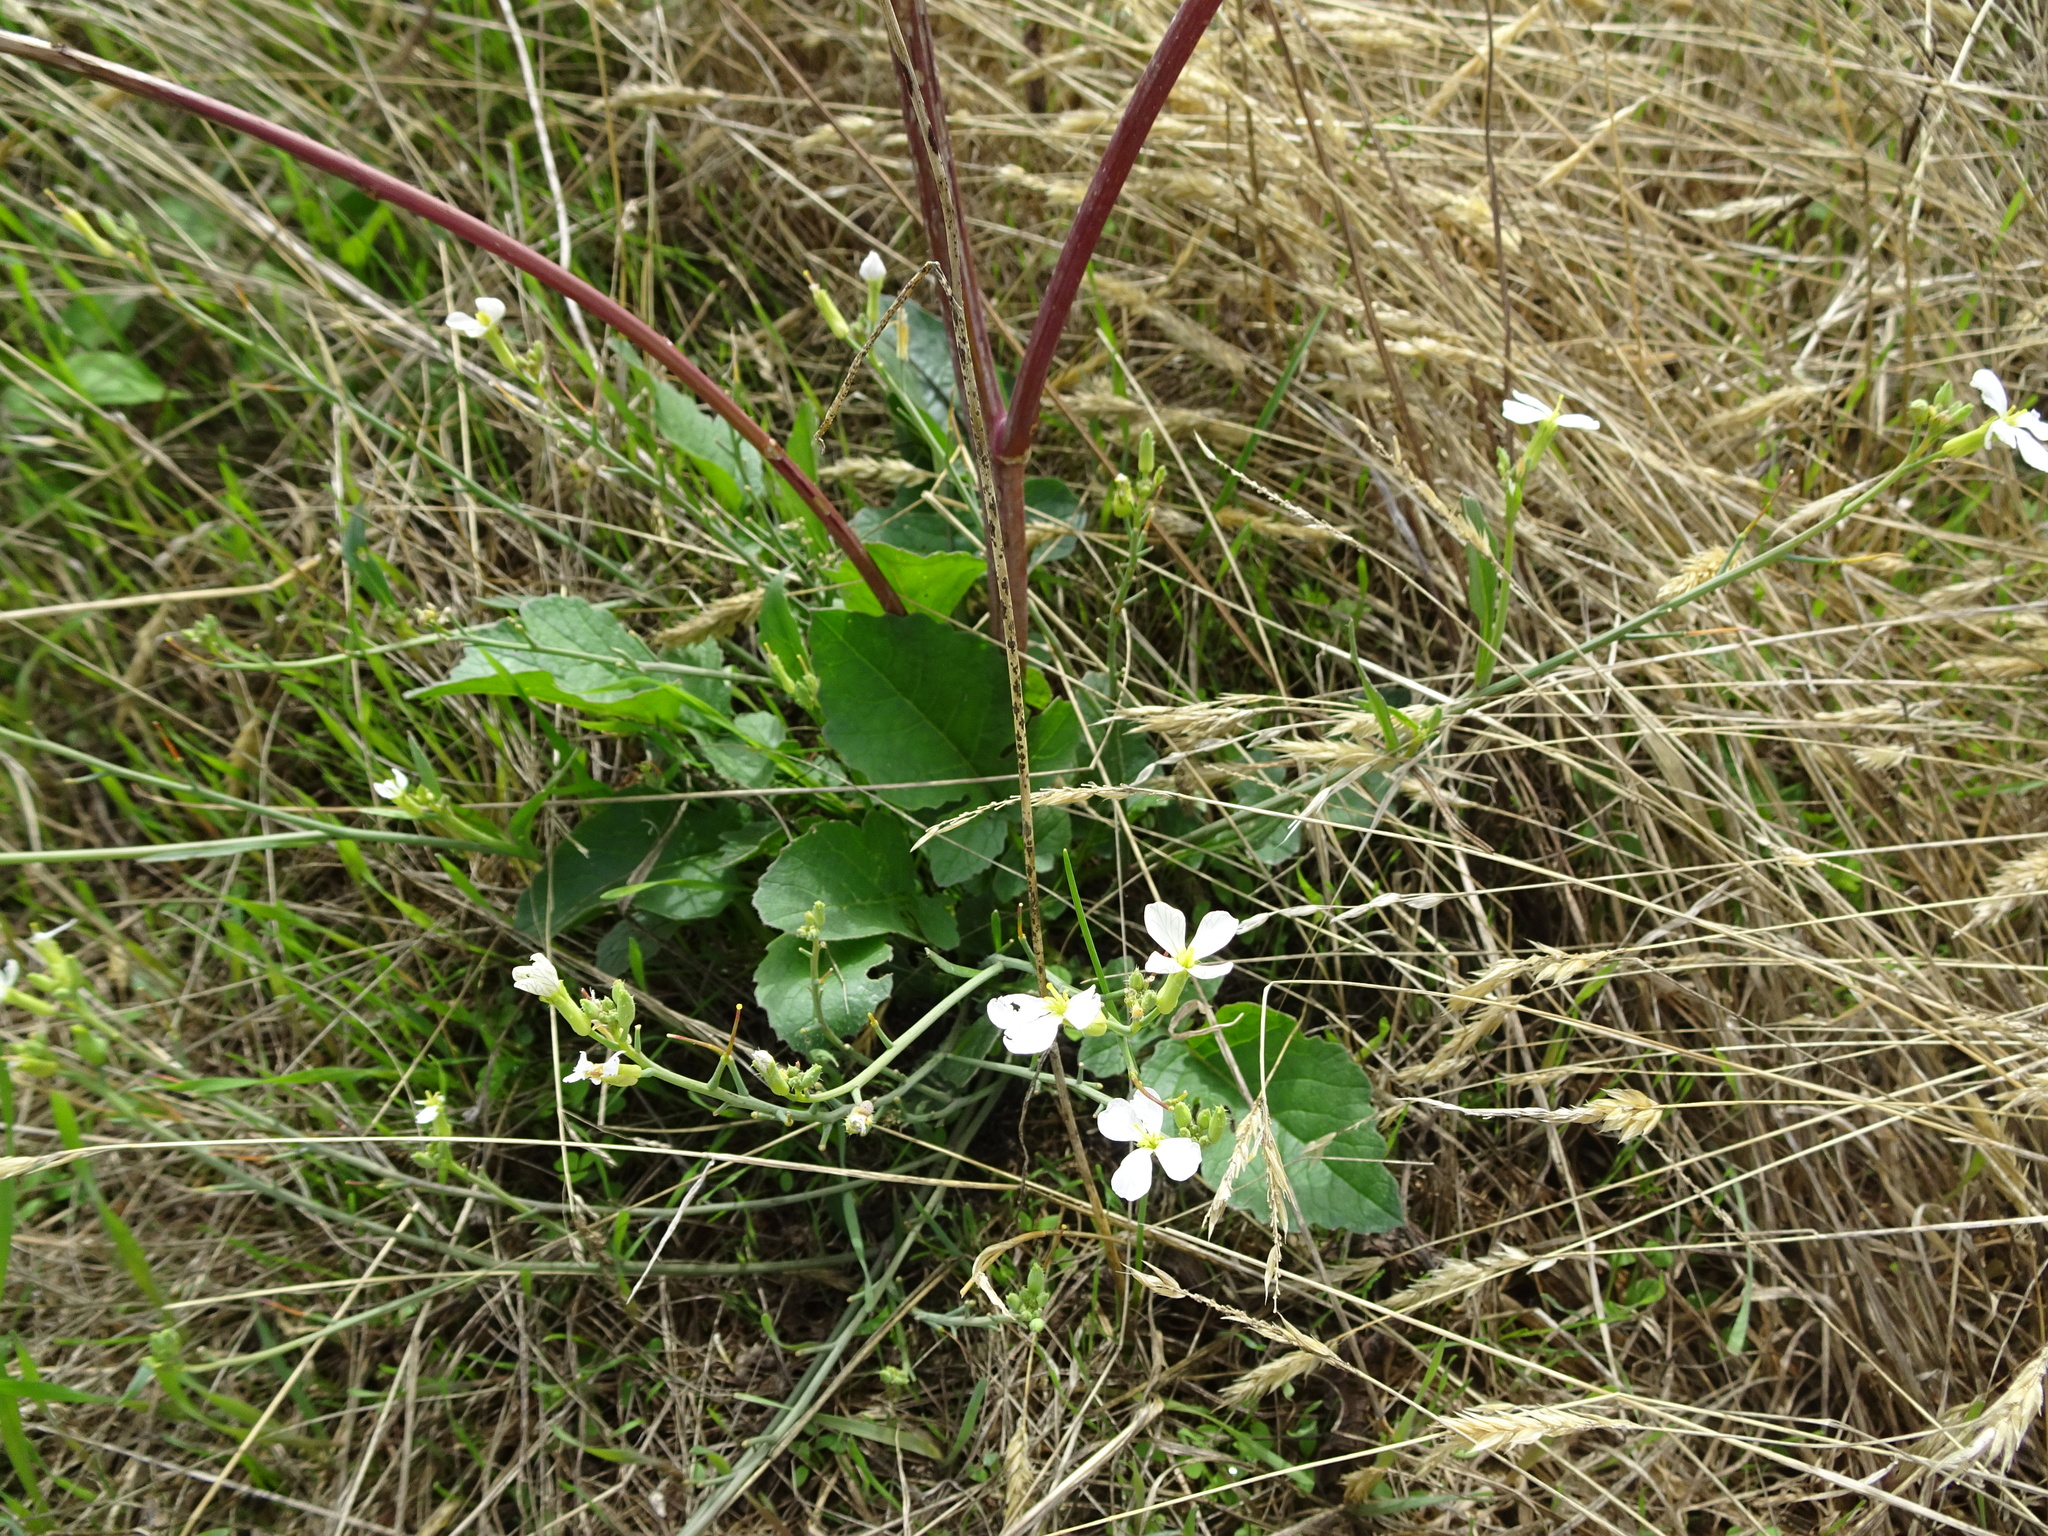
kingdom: Plantae
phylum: Tracheophyta
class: Magnoliopsida
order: Brassicales
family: Brassicaceae
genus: Raphanus
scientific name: Raphanus raphanistrum
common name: Wild radish
